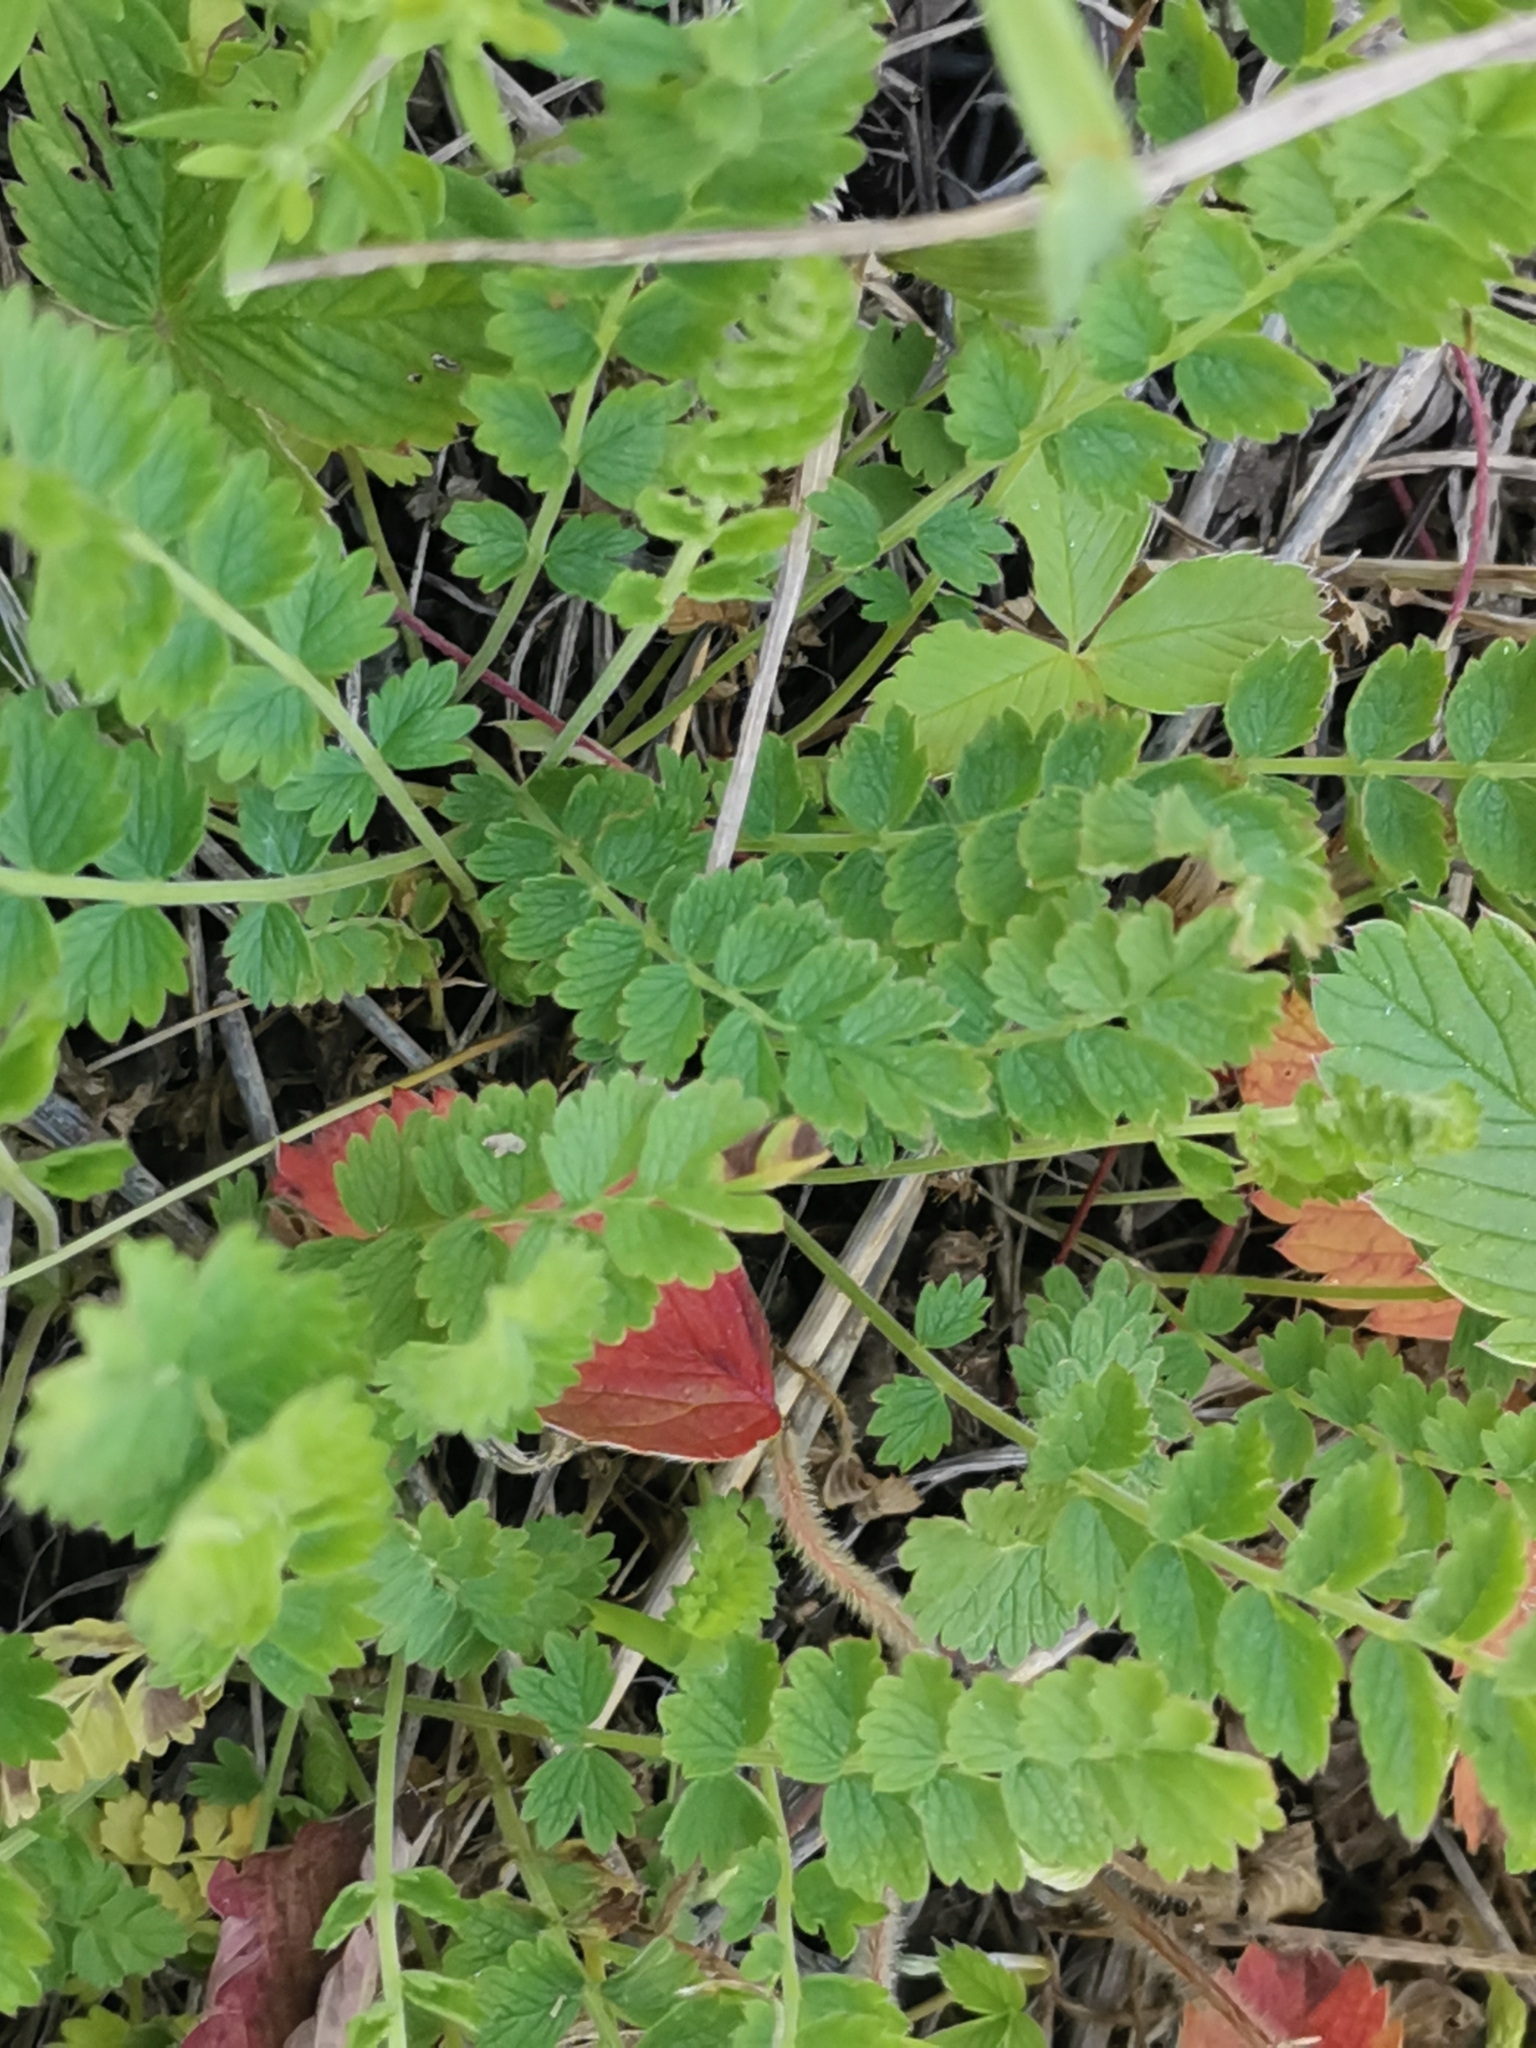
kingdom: Plantae
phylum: Tracheophyta
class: Magnoliopsida
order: Rosales
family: Rosaceae
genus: Potentilla
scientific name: Potentilla pimpinelloides
